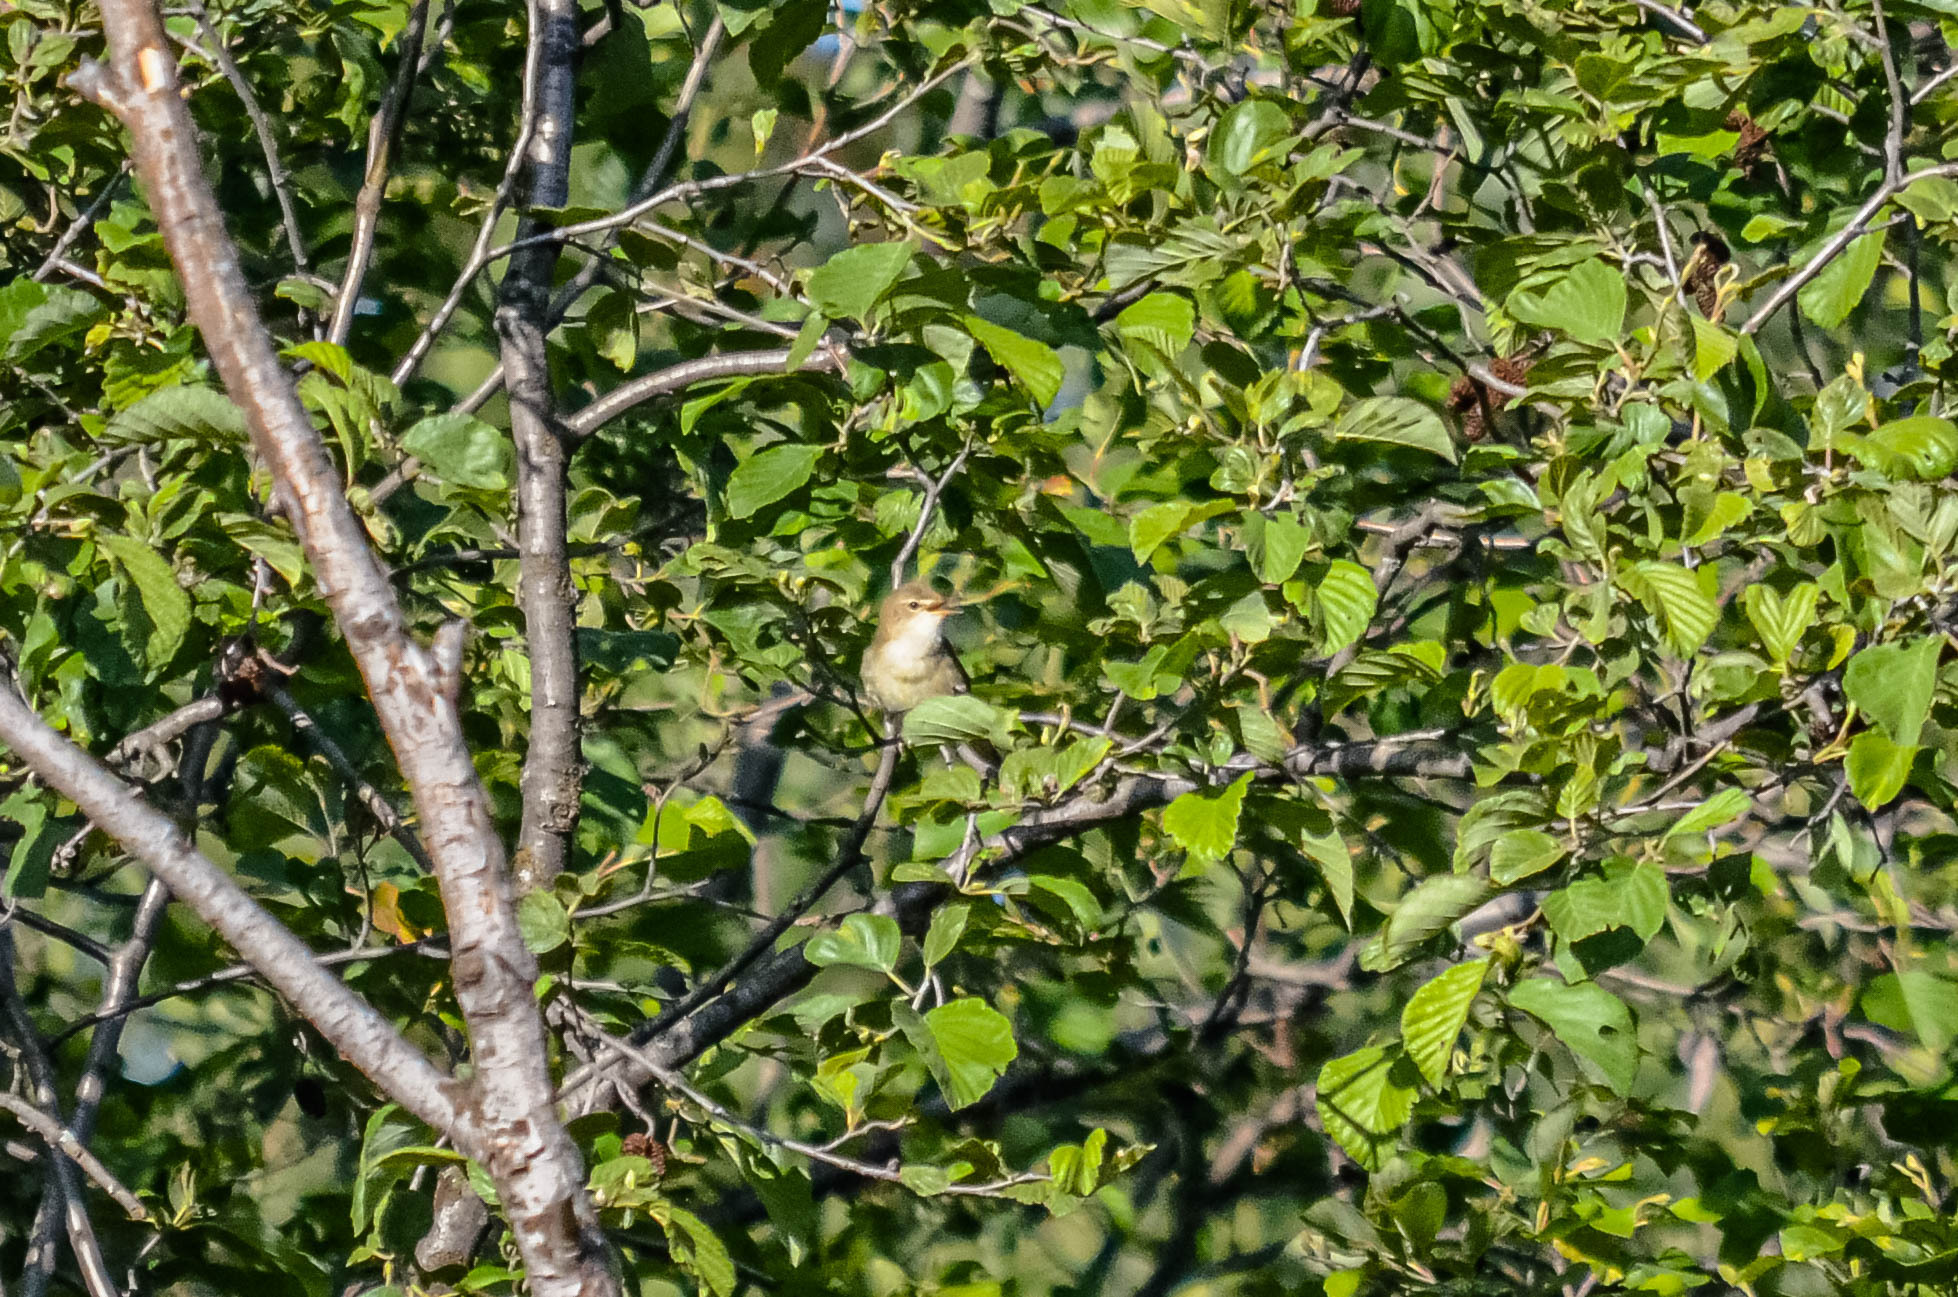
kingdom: Animalia
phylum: Chordata
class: Aves
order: Passeriformes
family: Acrocephalidae
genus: Acrocephalus
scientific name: Acrocephalus dumetorum
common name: Blyth's reed warbler
